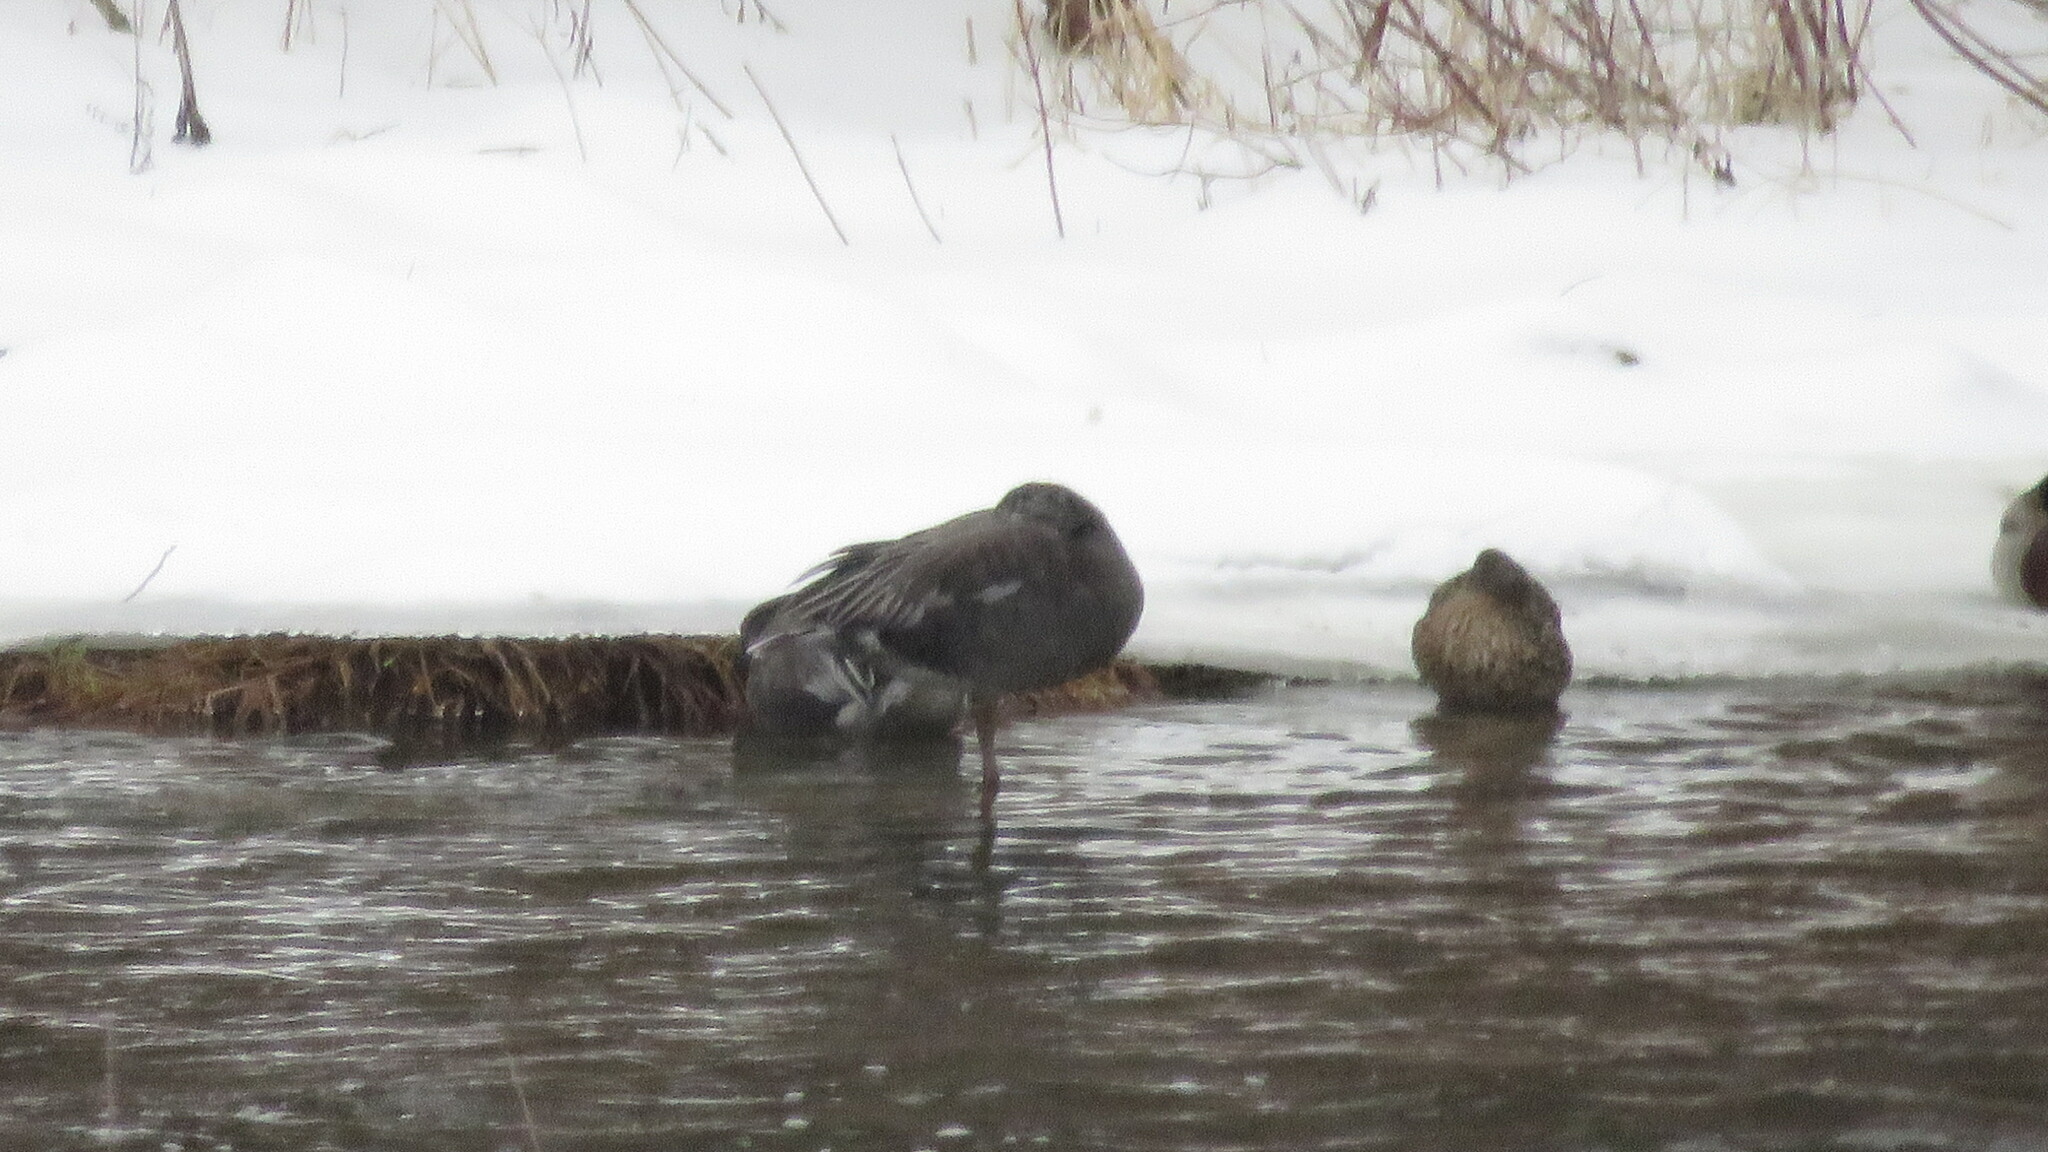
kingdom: Animalia
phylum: Chordata
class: Aves
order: Anseriformes
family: Anatidae
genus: Anser
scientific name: Anser caerulescens
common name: Snow goose
